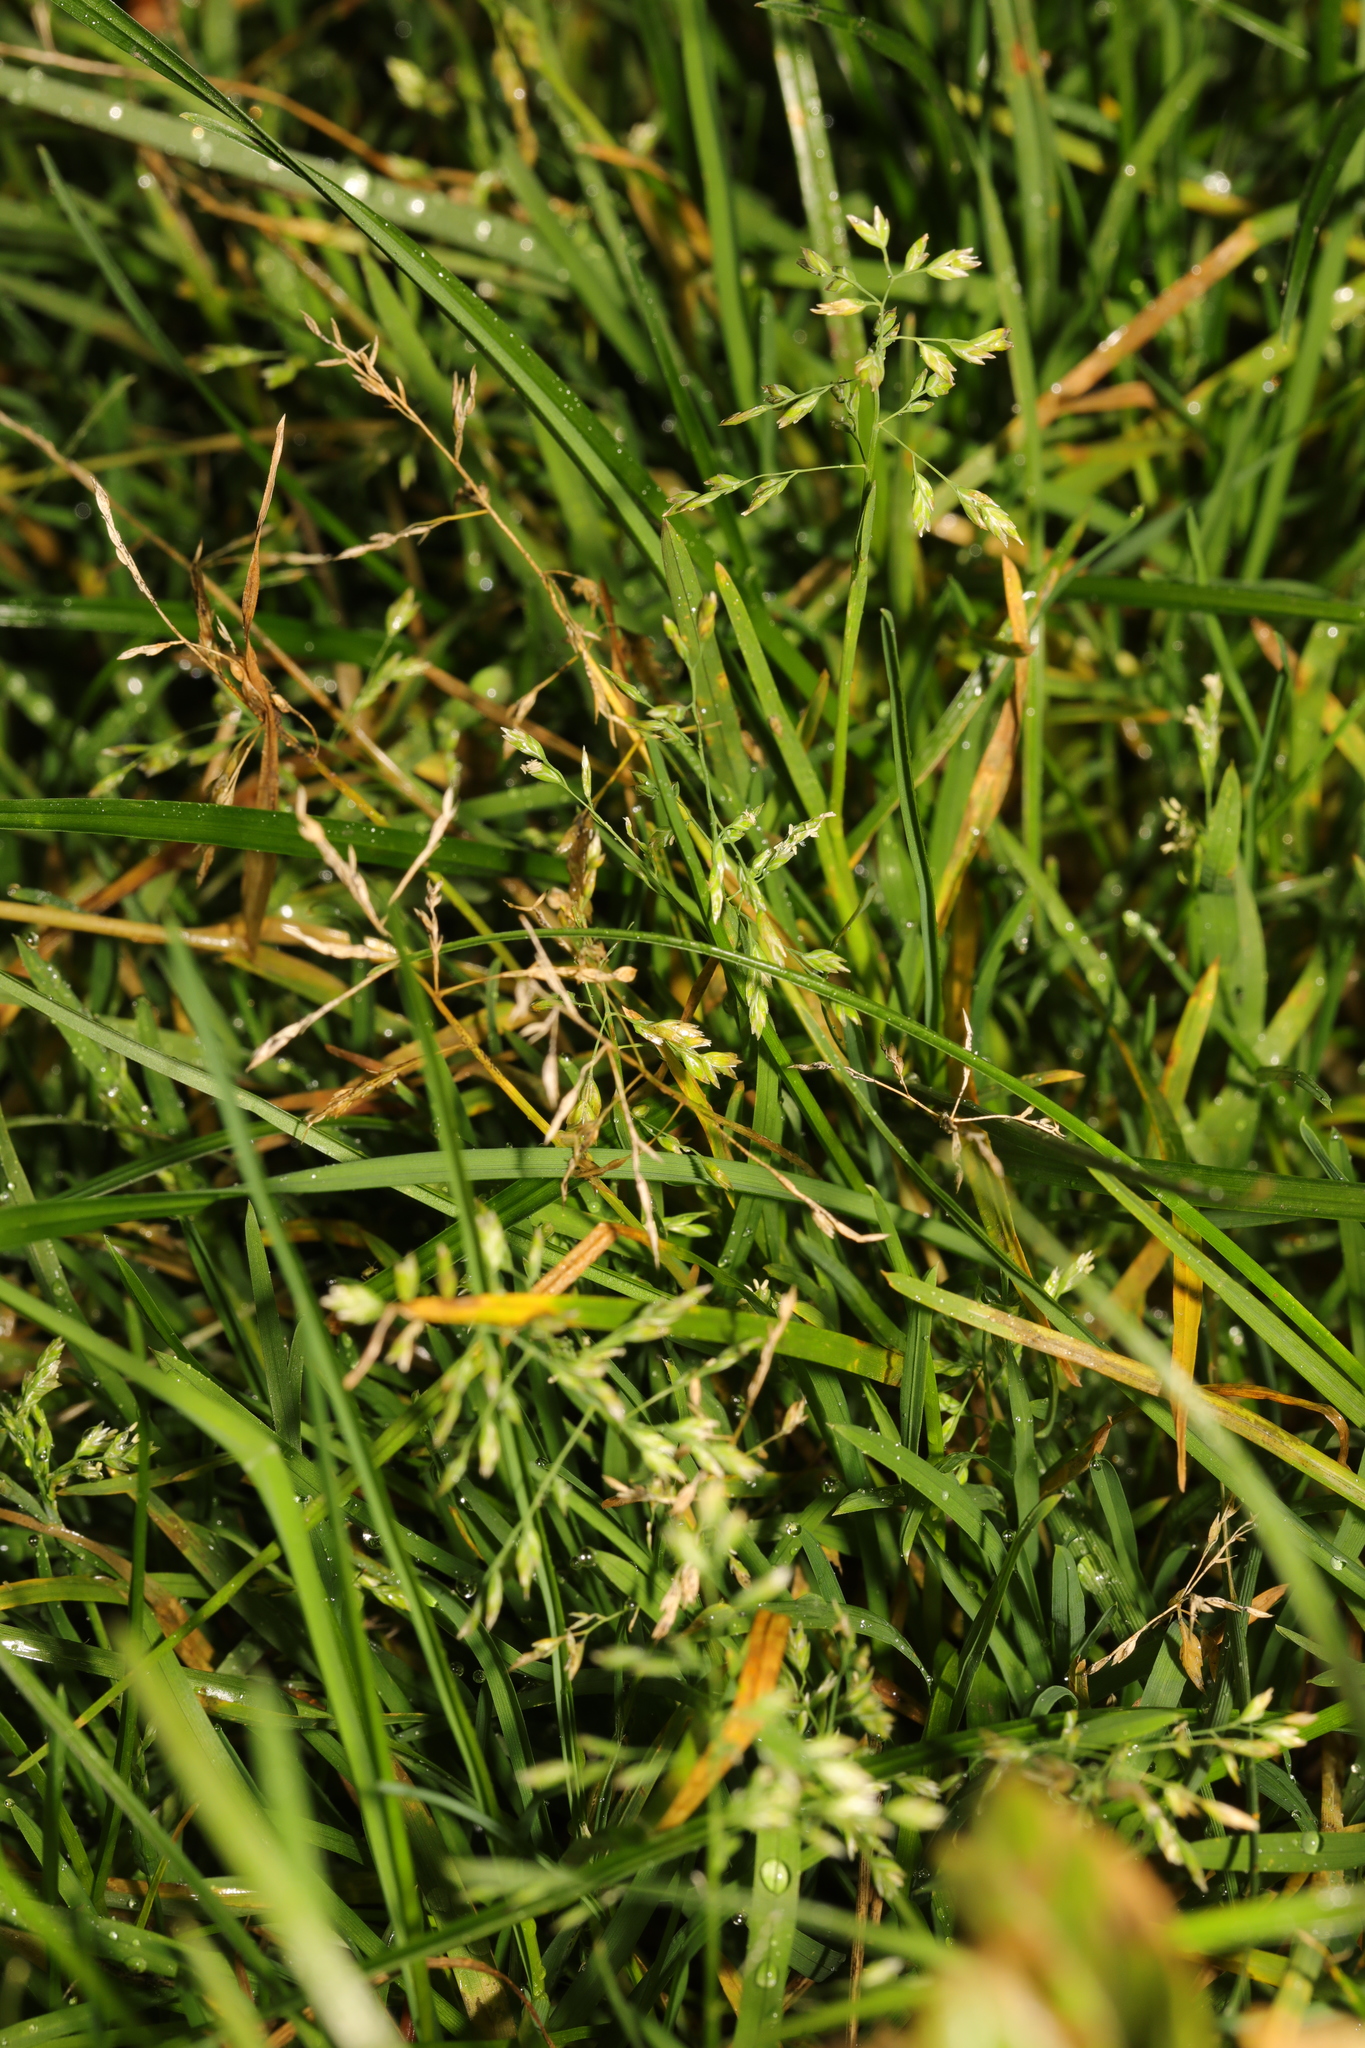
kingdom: Plantae
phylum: Tracheophyta
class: Liliopsida
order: Poales
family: Poaceae
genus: Poa
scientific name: Poa annua
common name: Annual bluegrass
